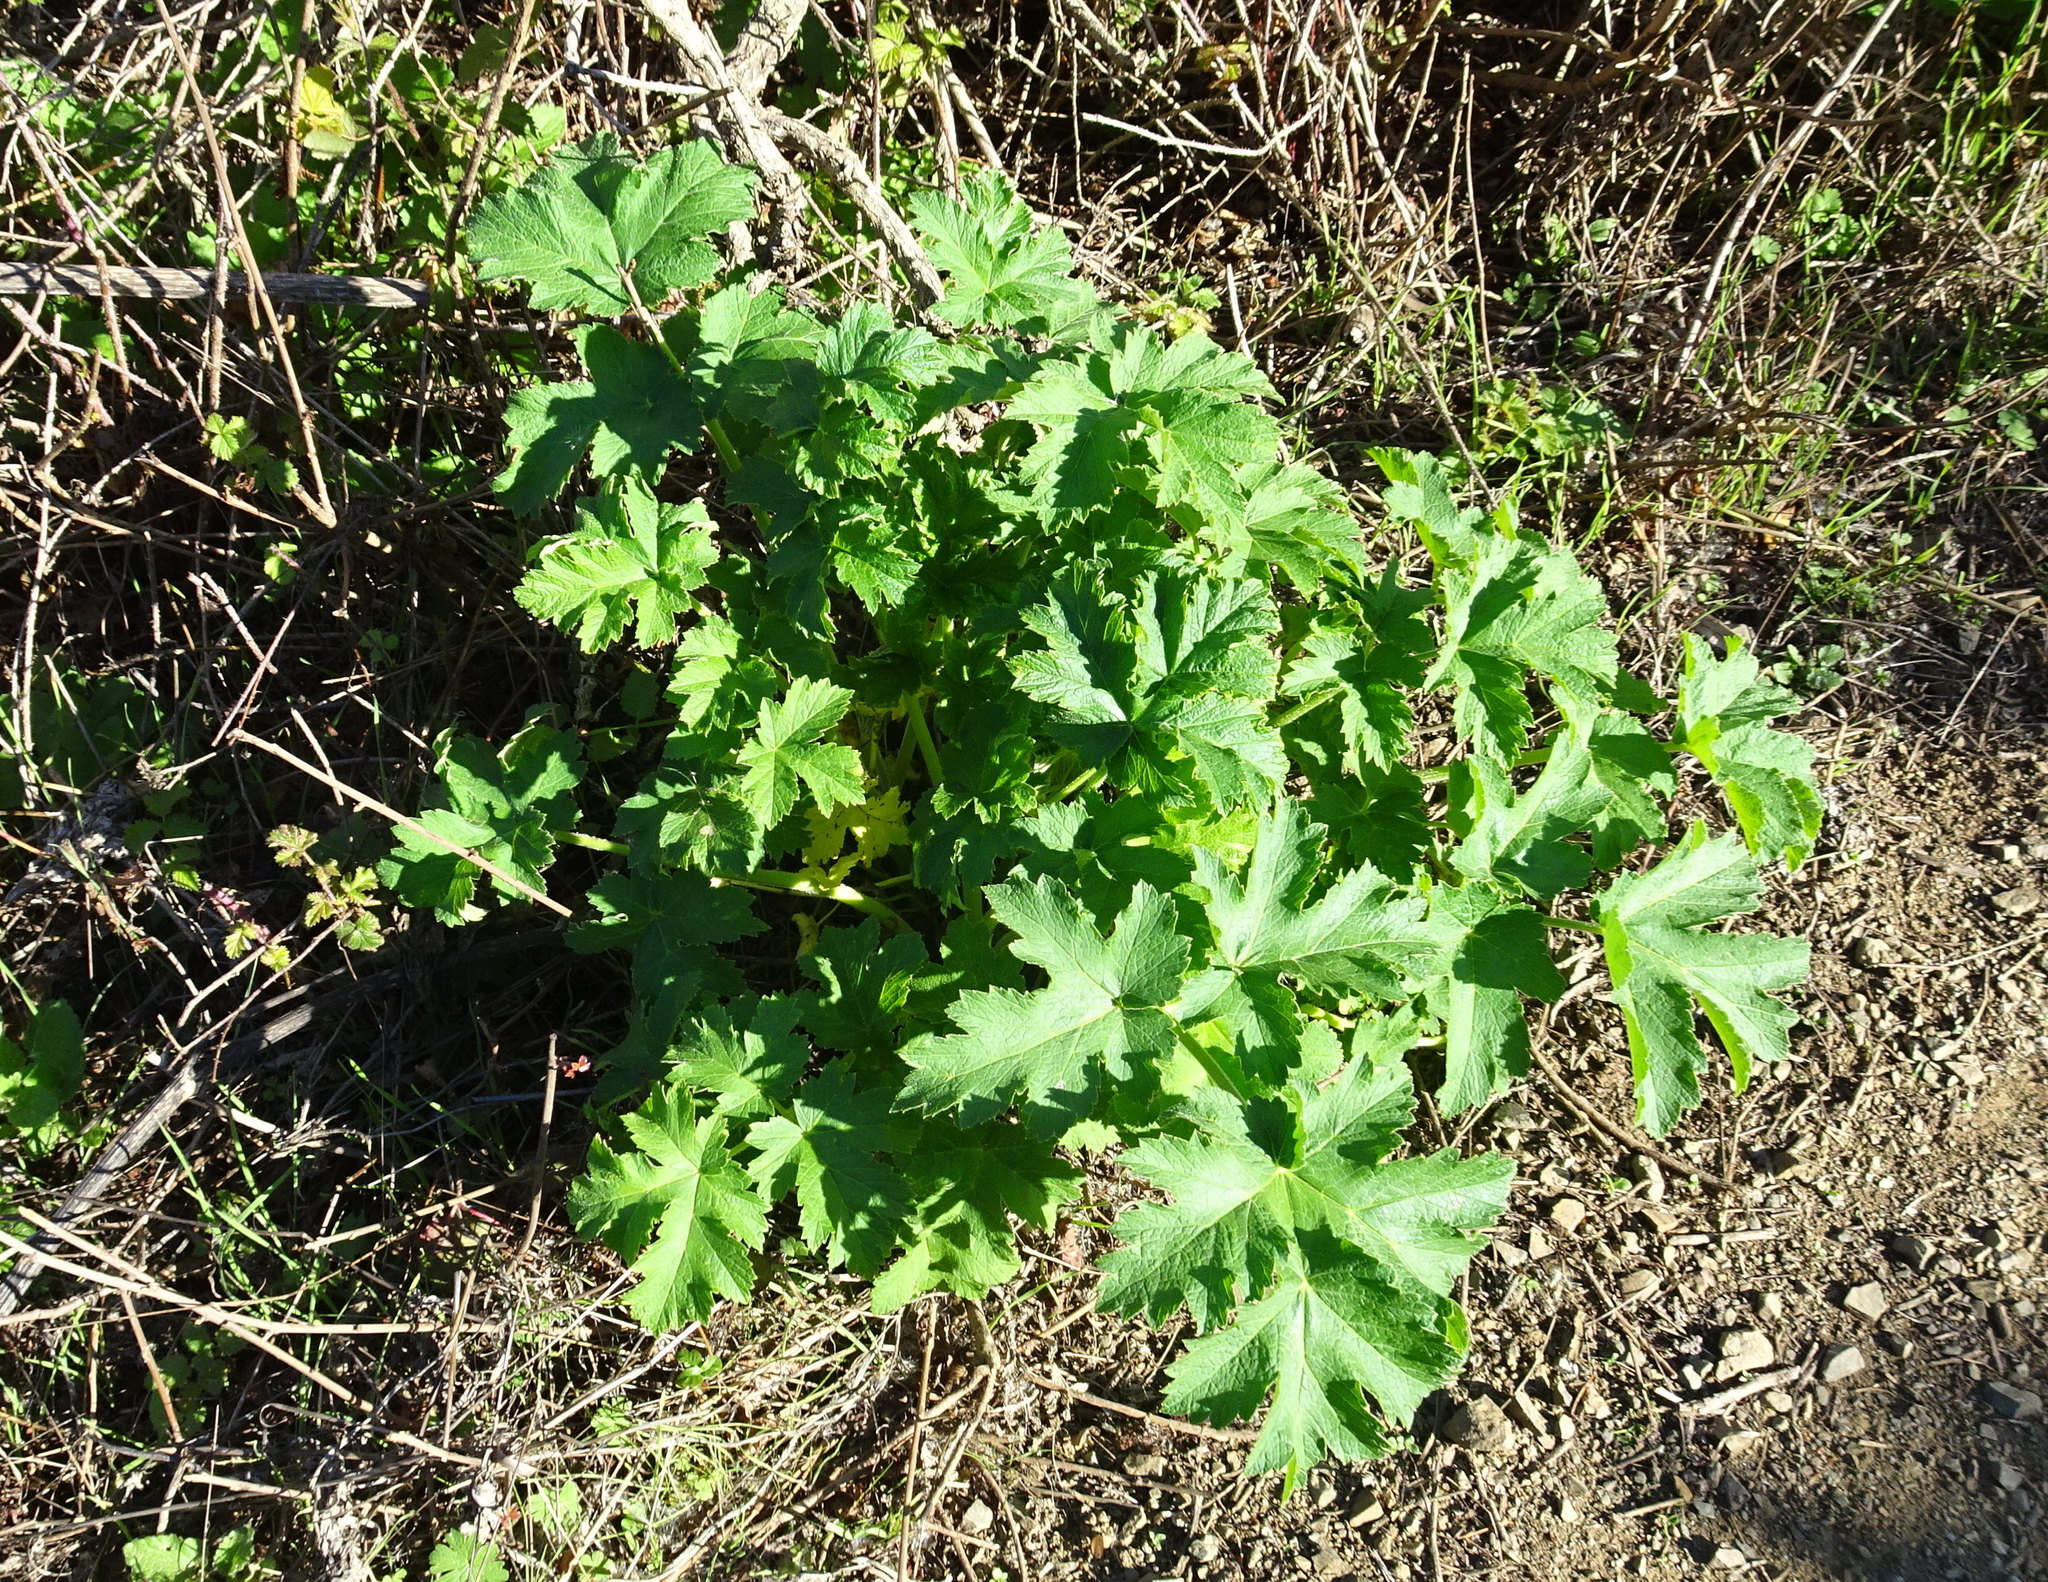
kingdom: Plantae
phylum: Tracheophyta
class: Magnoliopsida
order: Apiales
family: Apiaceae
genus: Heracleum
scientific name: Heracleum maximum
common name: American cow parsnip
